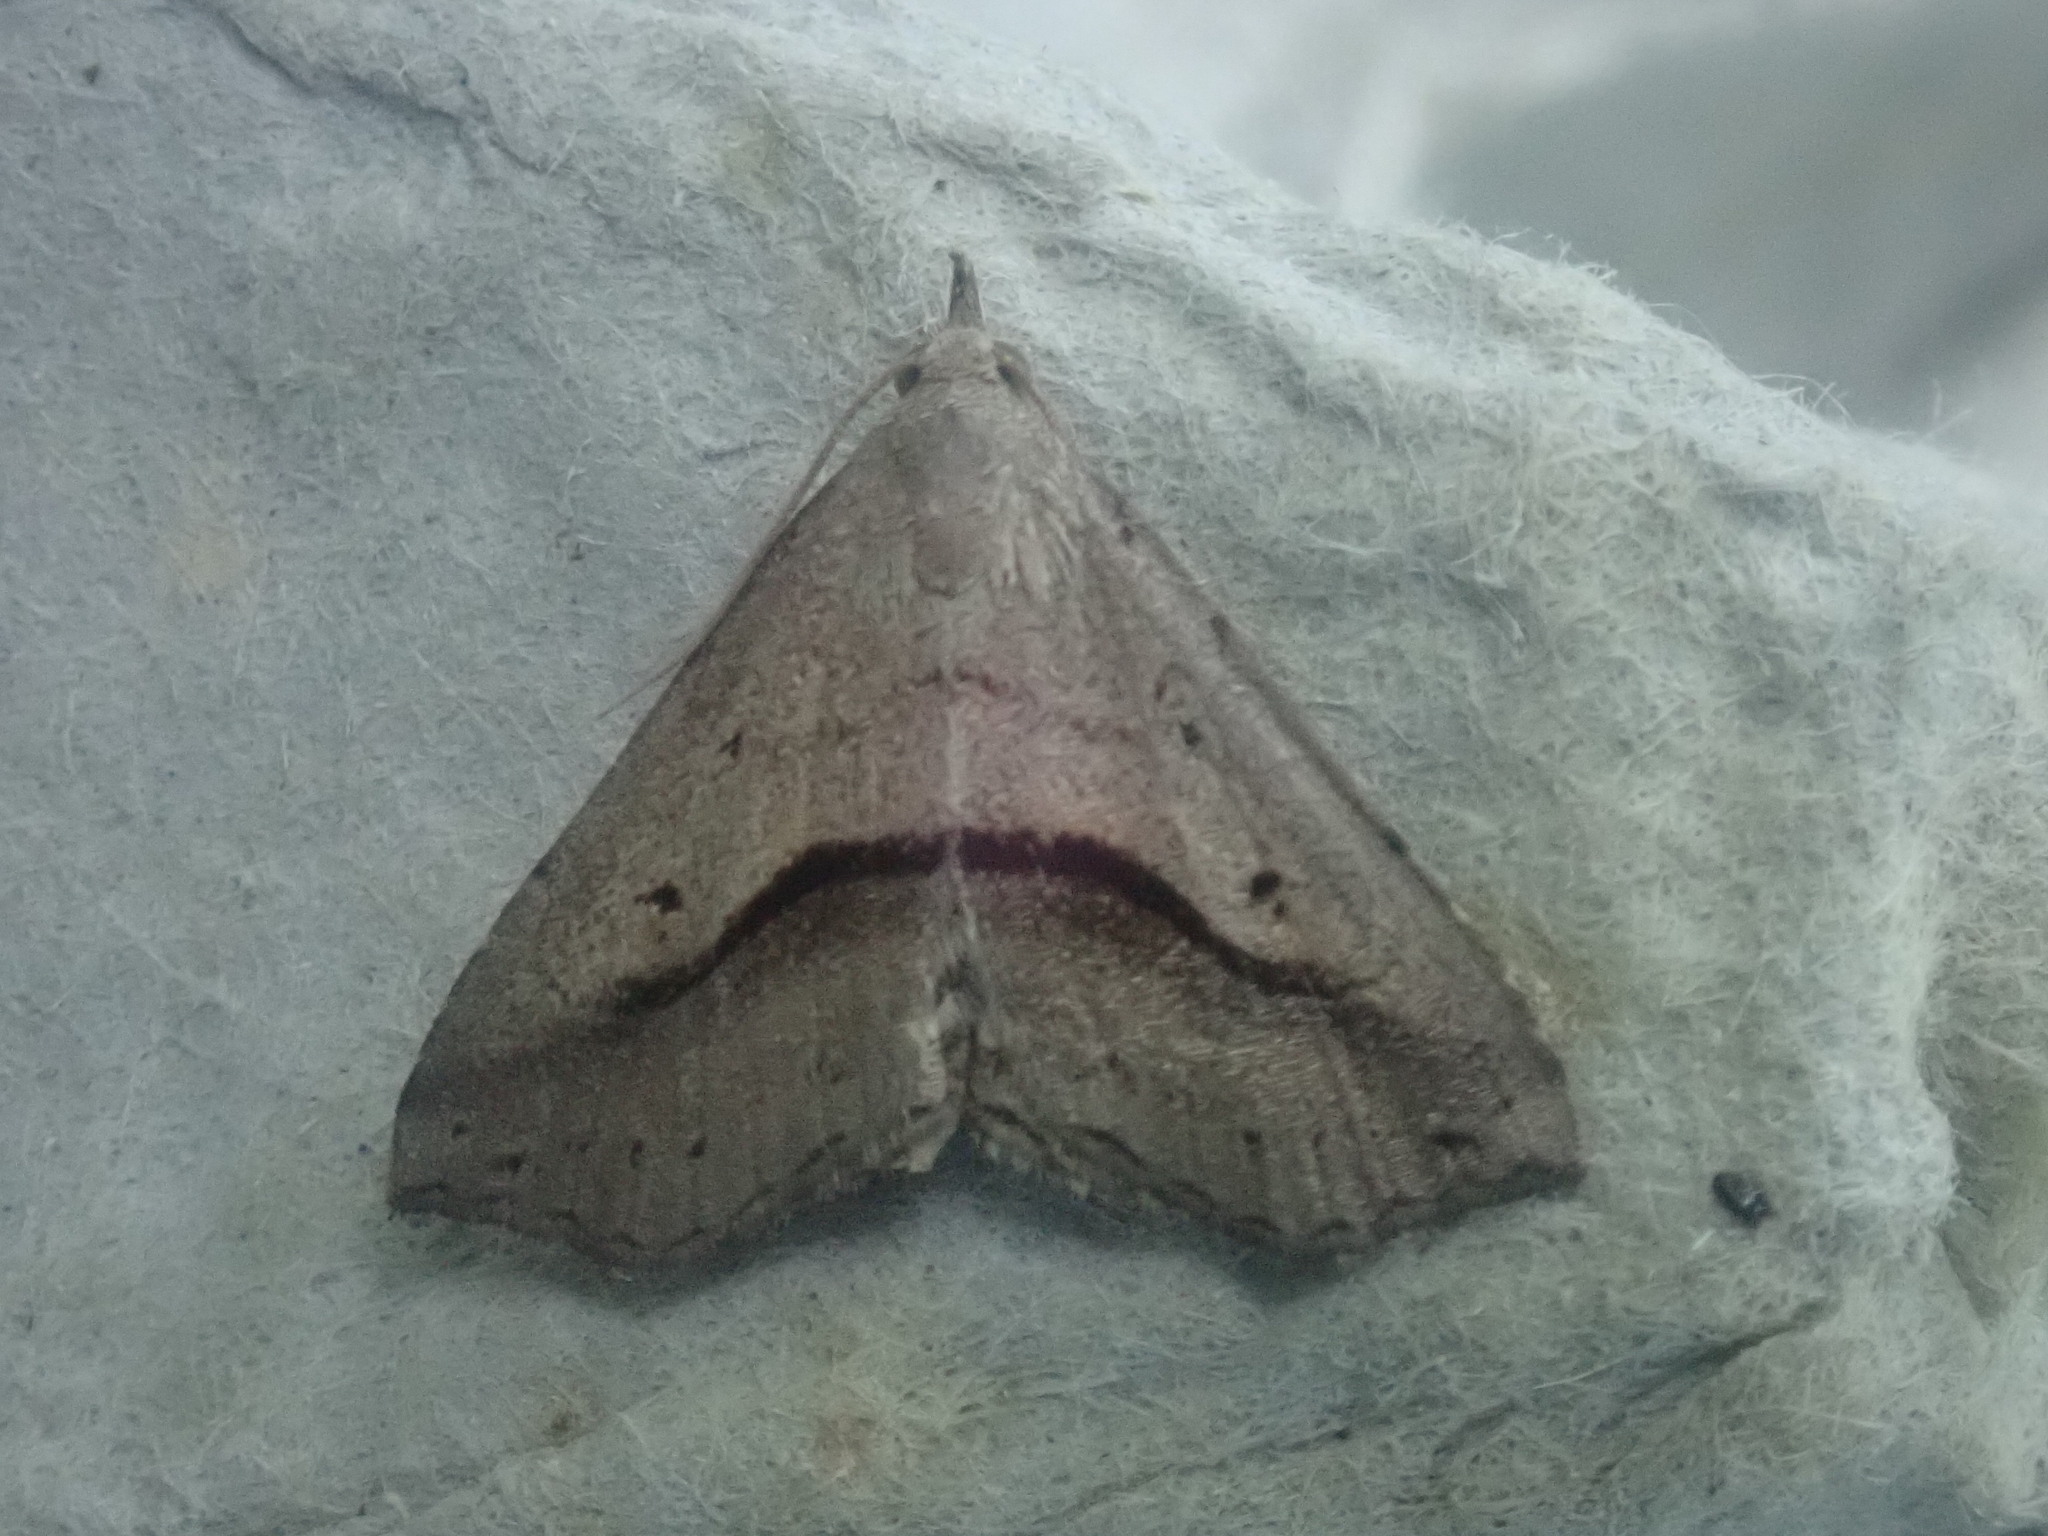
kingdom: Animalia
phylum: Arthropoda
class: Insecta
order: Lepidoptera
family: Erebidae
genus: Spargaloma
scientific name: Spargaloma perditalis
